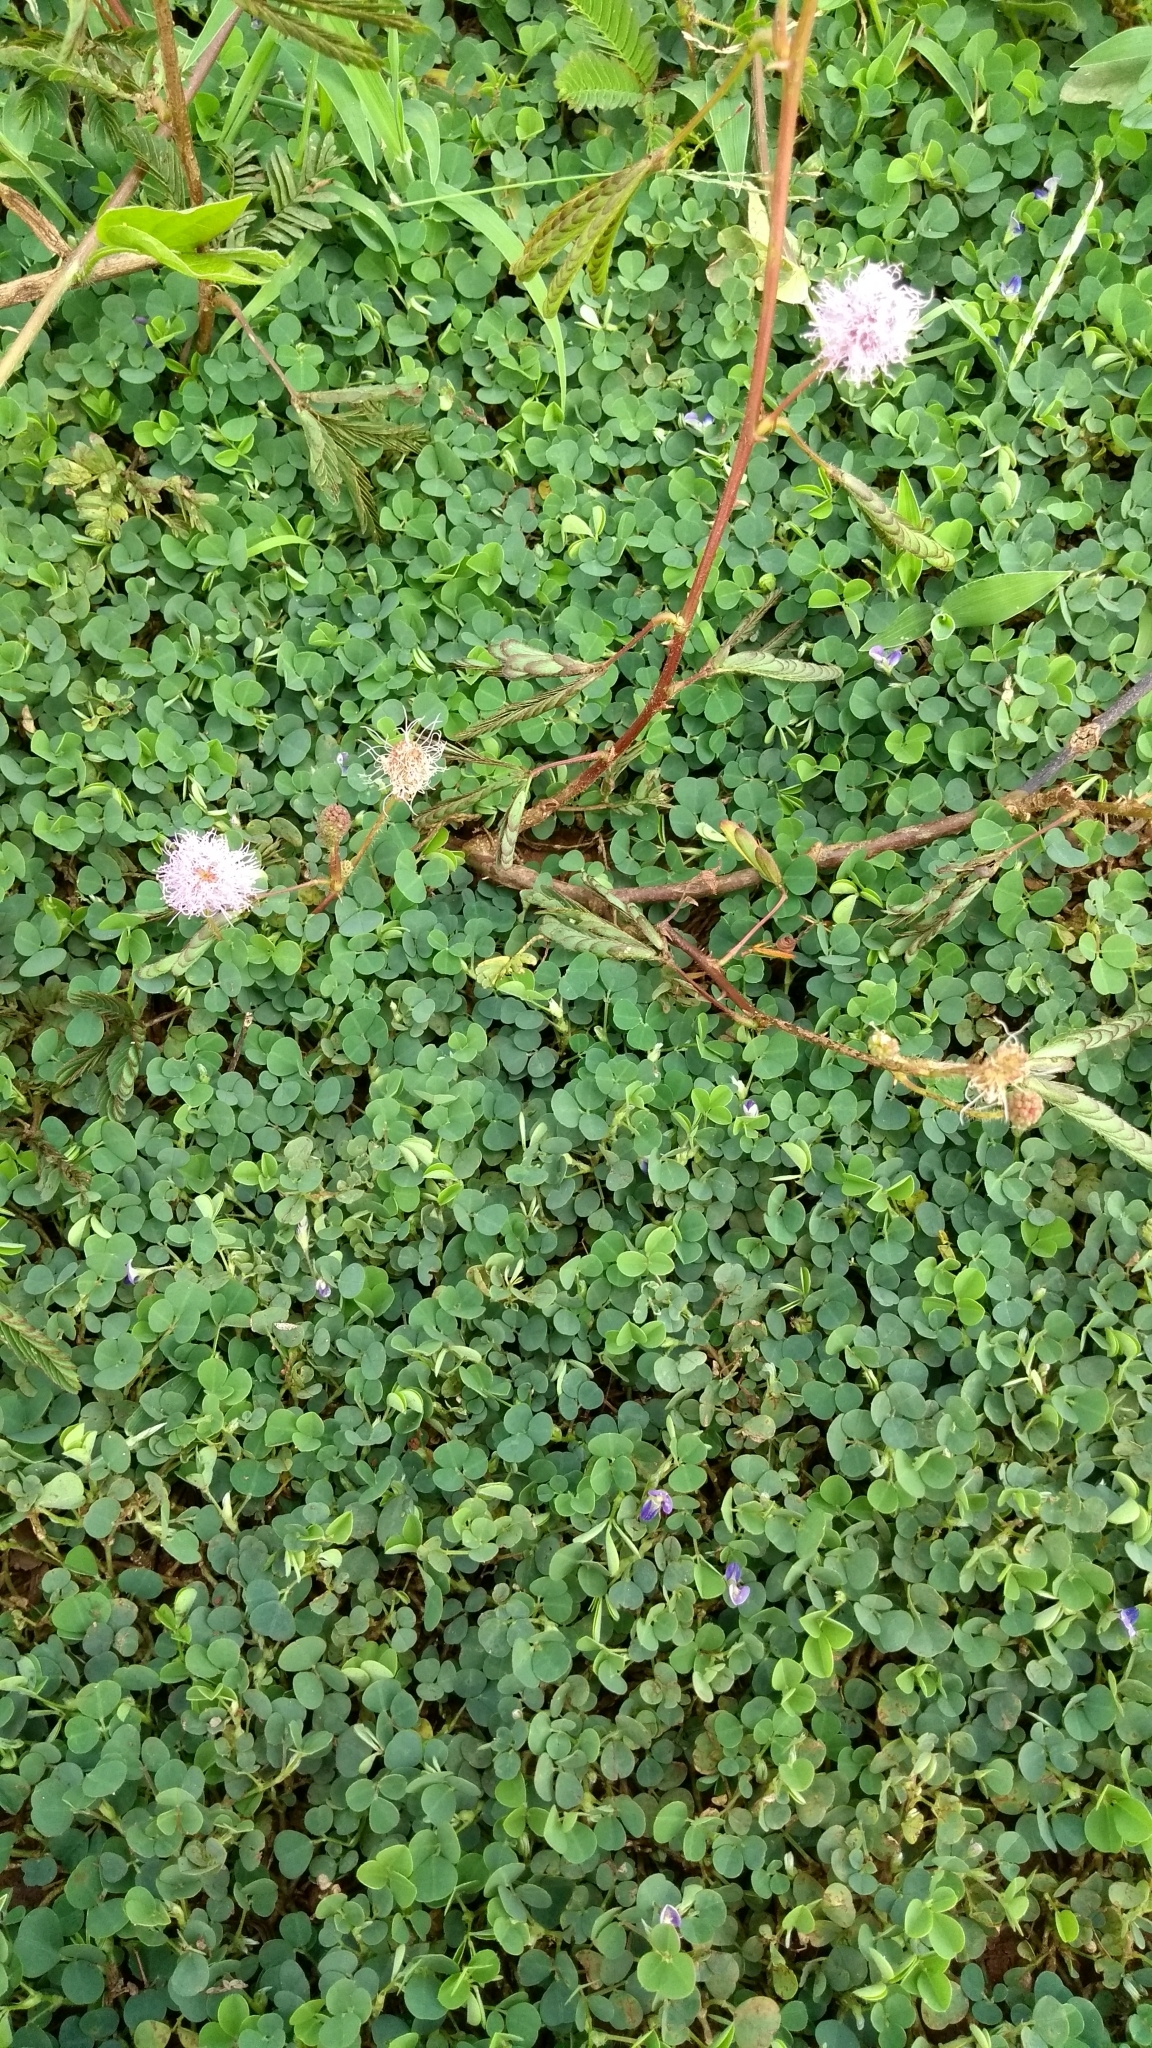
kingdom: Plantae
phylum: Tracheophyta
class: Magnoliopsida
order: Fabales
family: Fabaceae
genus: Mimosa
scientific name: Mimosa pudica
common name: Sensitive plant
